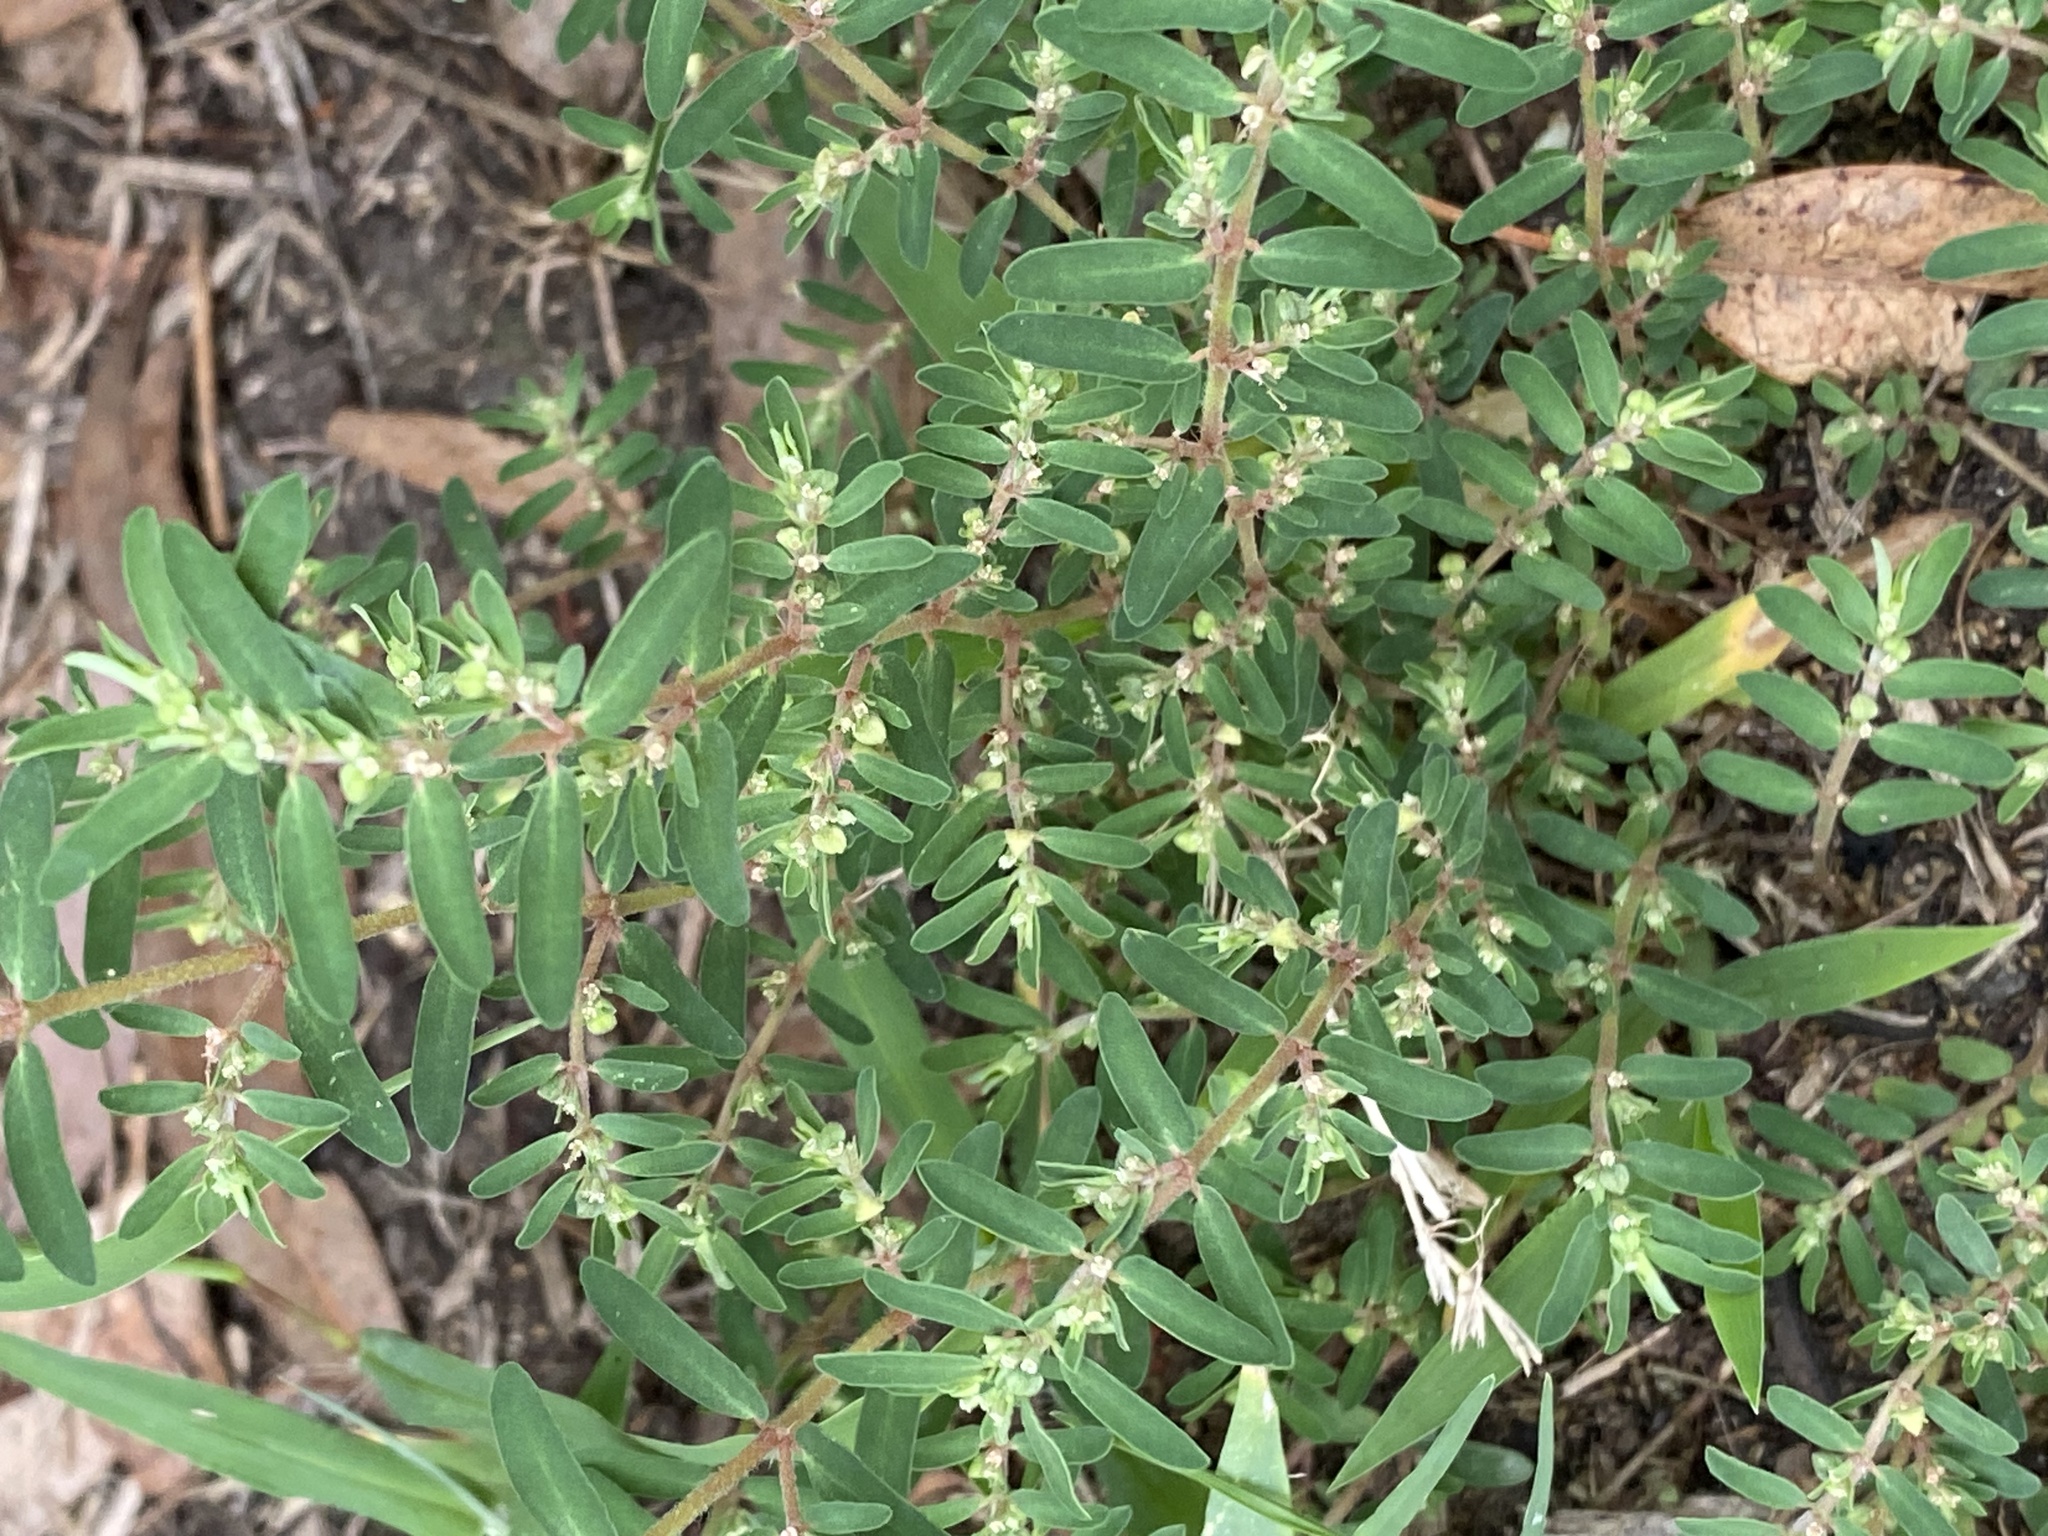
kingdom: Plantae
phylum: Tracheophyta
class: Magnoliopsida
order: Malpighiales
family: Euphorbiaceae
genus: Euphorbia
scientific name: Euphorbia maculata
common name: Spotted spurge
